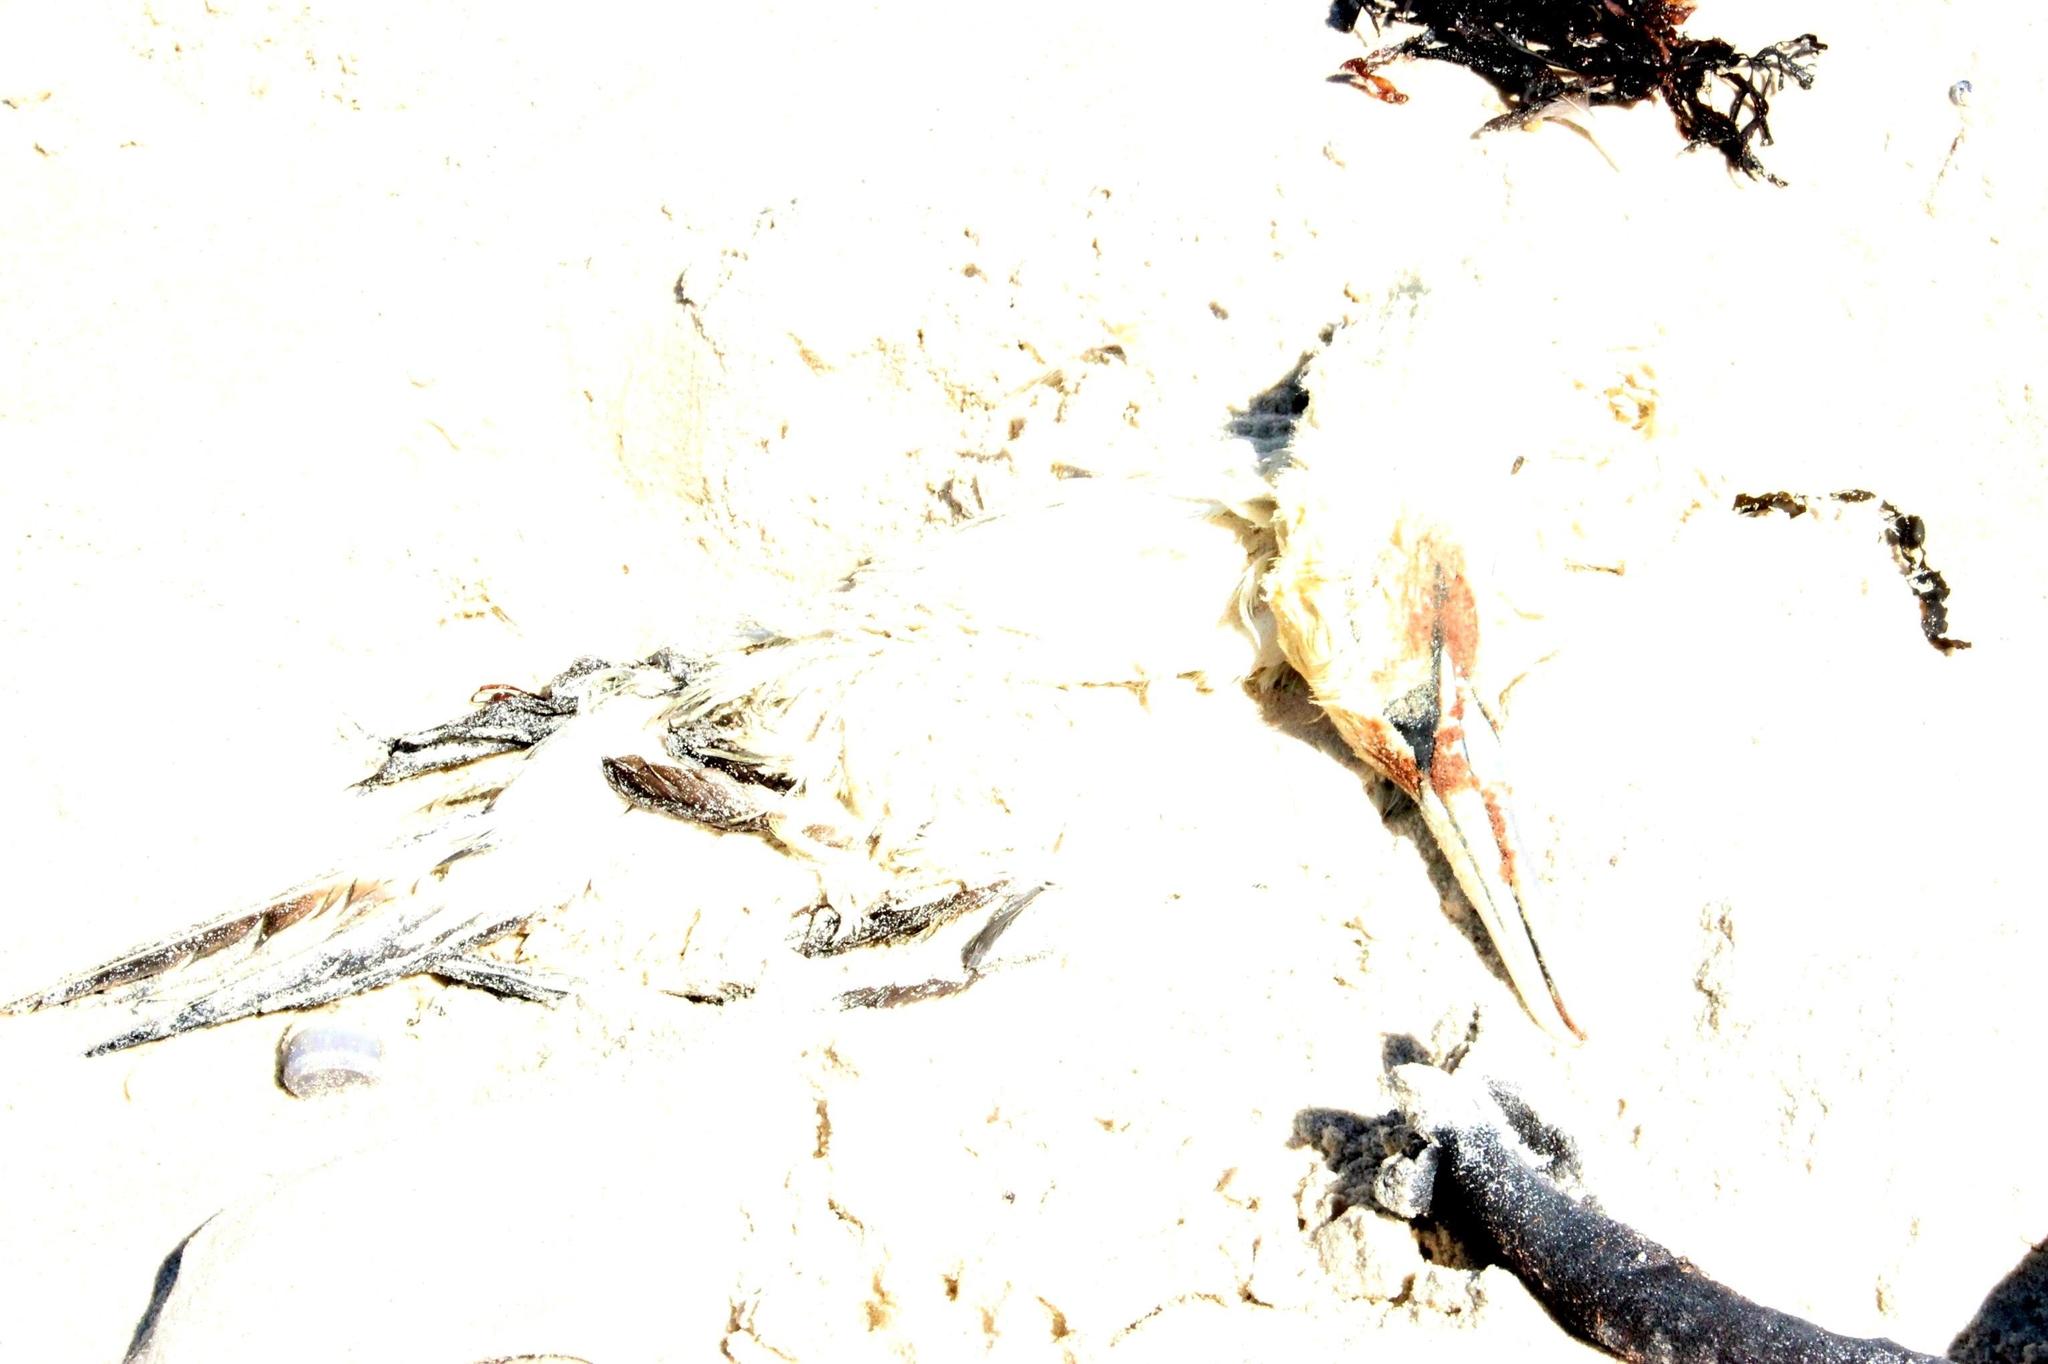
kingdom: Animalia
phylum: Chordata
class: Aves
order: Suliformes
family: Sulidae
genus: Morus
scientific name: Morus capensis
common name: Cape gannet
